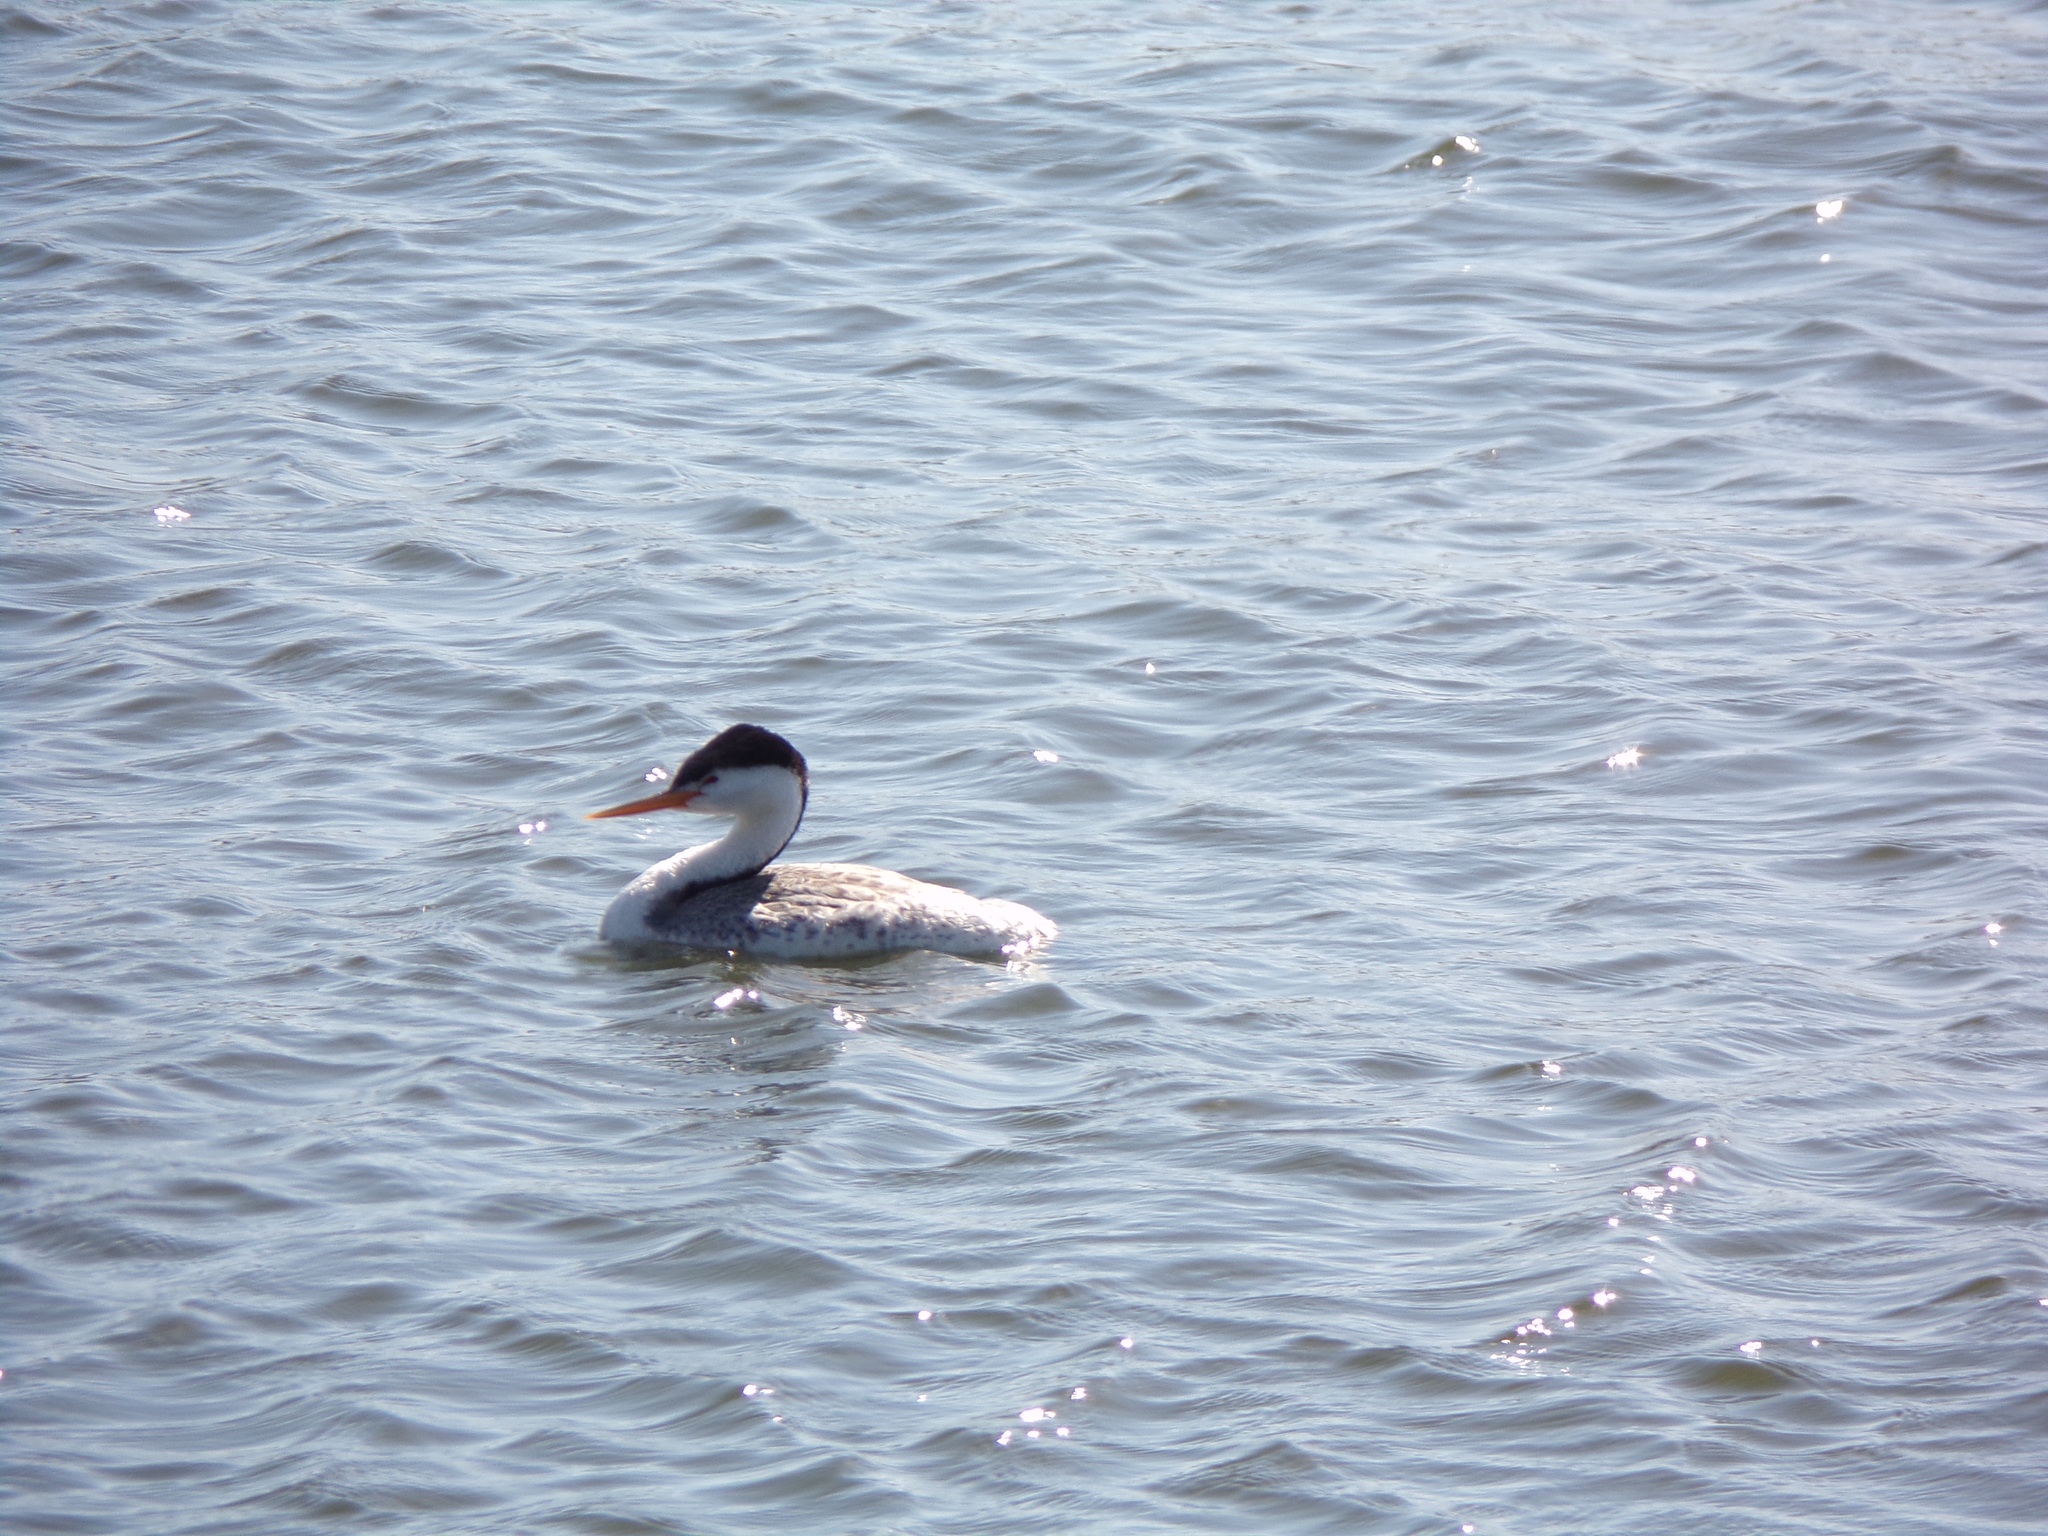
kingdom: Animalia
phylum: Chordata
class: Aves
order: Podicipediformes
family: Podicipedidae
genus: Aechmophorus
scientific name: Aechmophorus clarkii
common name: Clark's grebe
